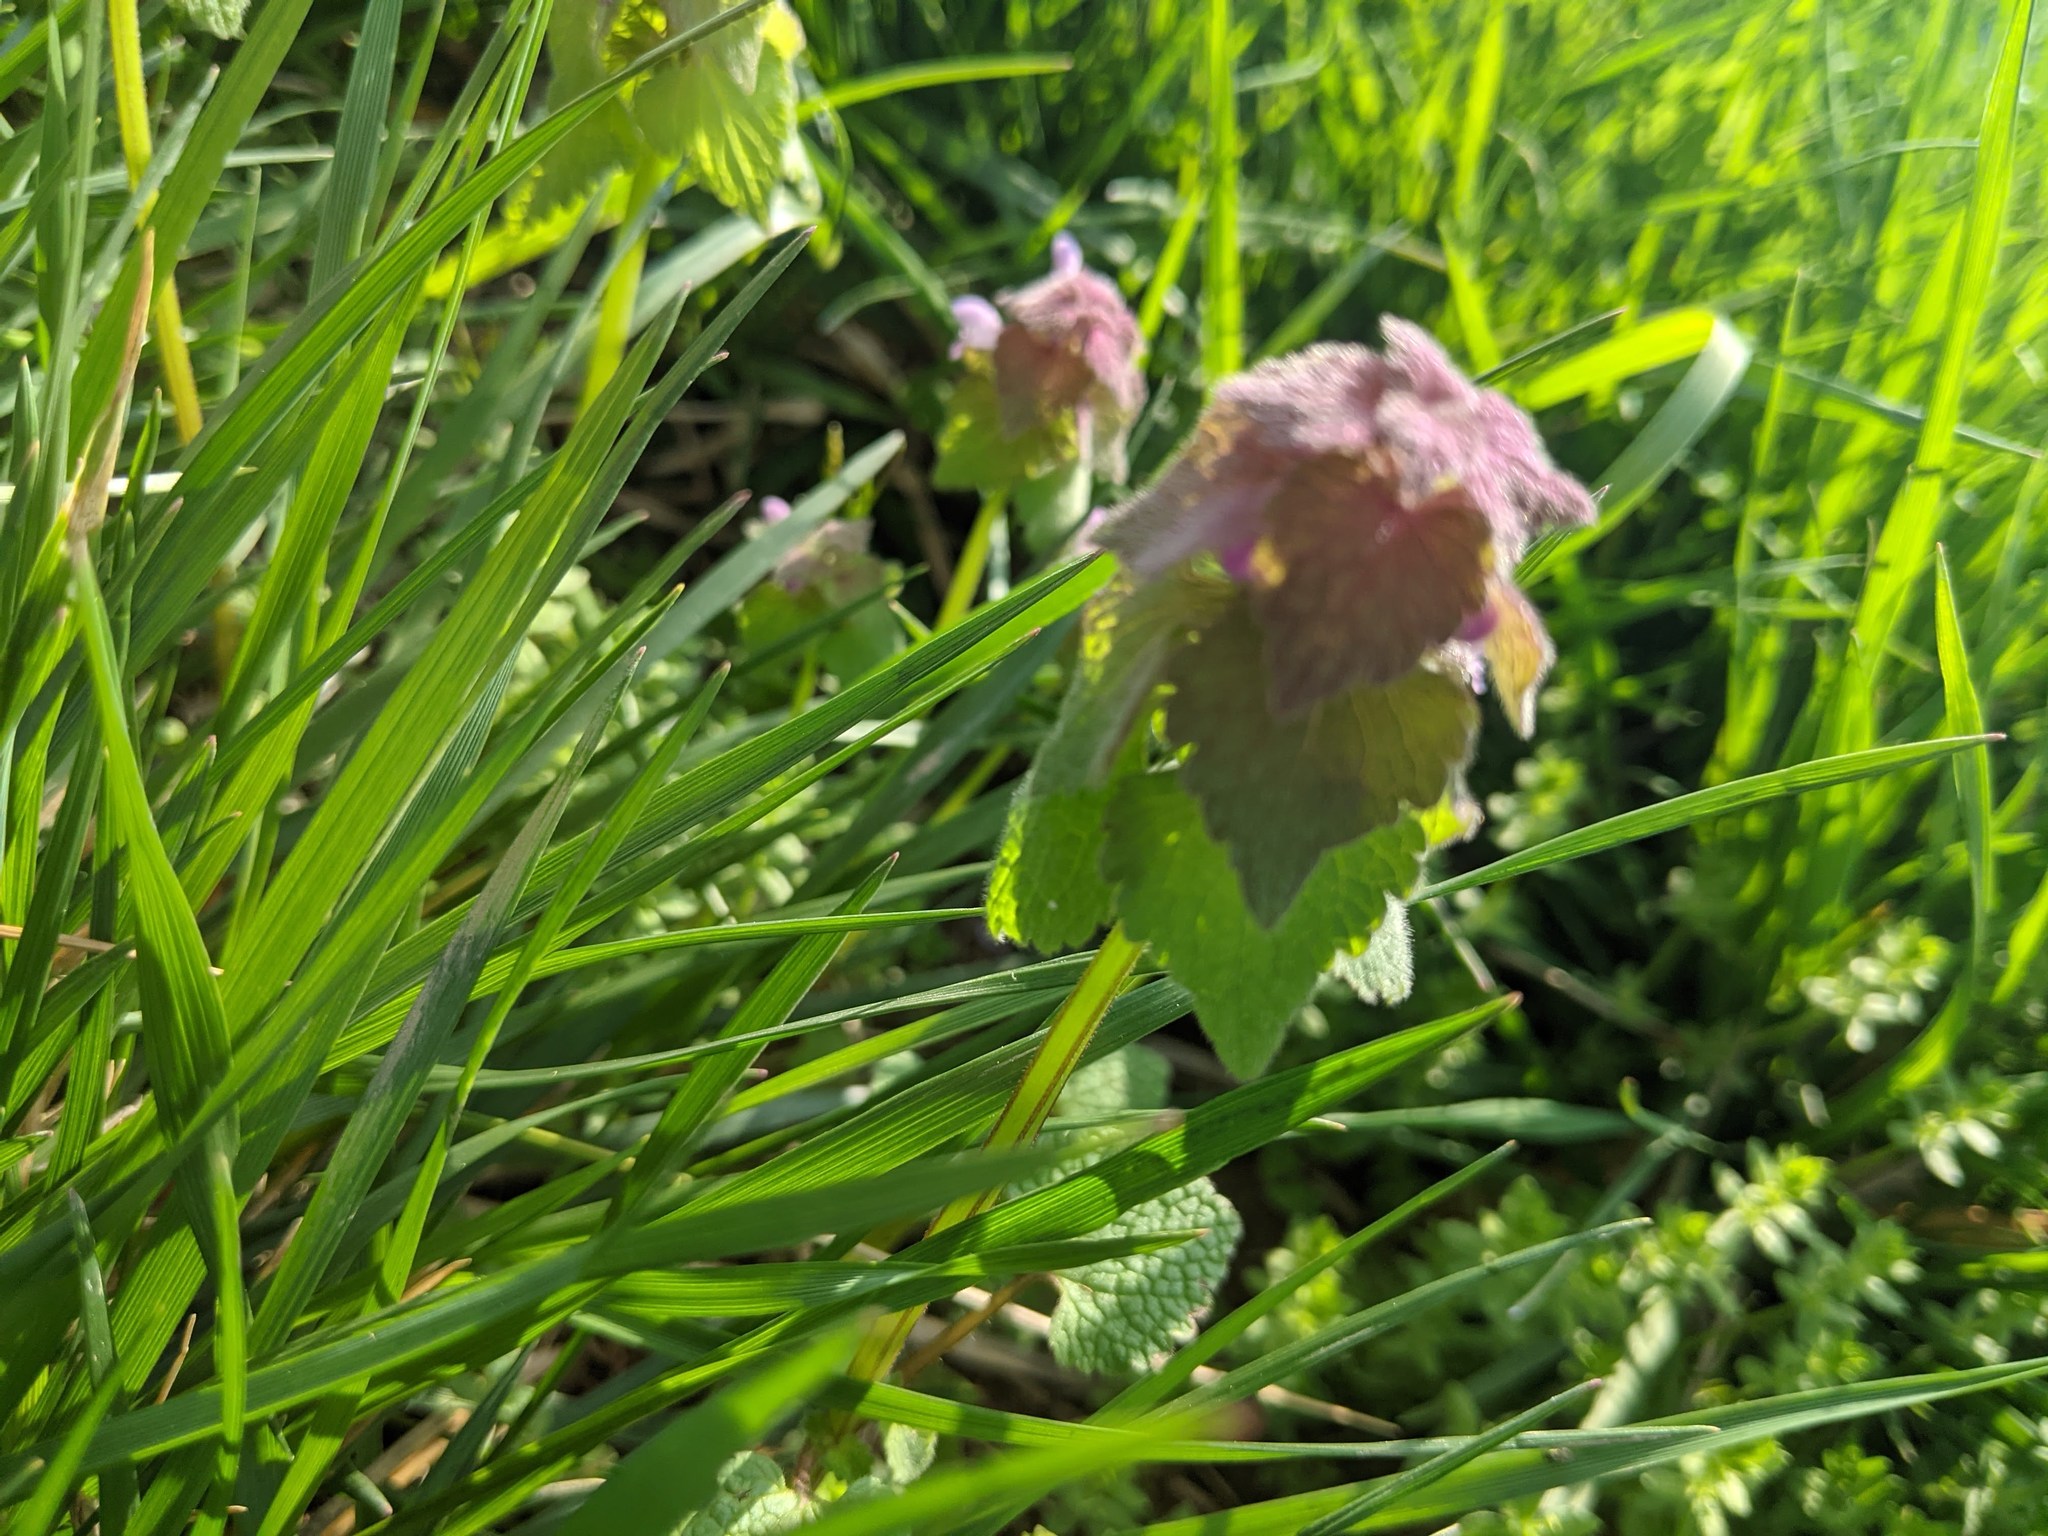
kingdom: Plantae
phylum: Tracheophyta
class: Magnoliopsida
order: Lamiales
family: Lamiaceae
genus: Lamium
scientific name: Lamium purpureum
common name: Red dead-nettle
